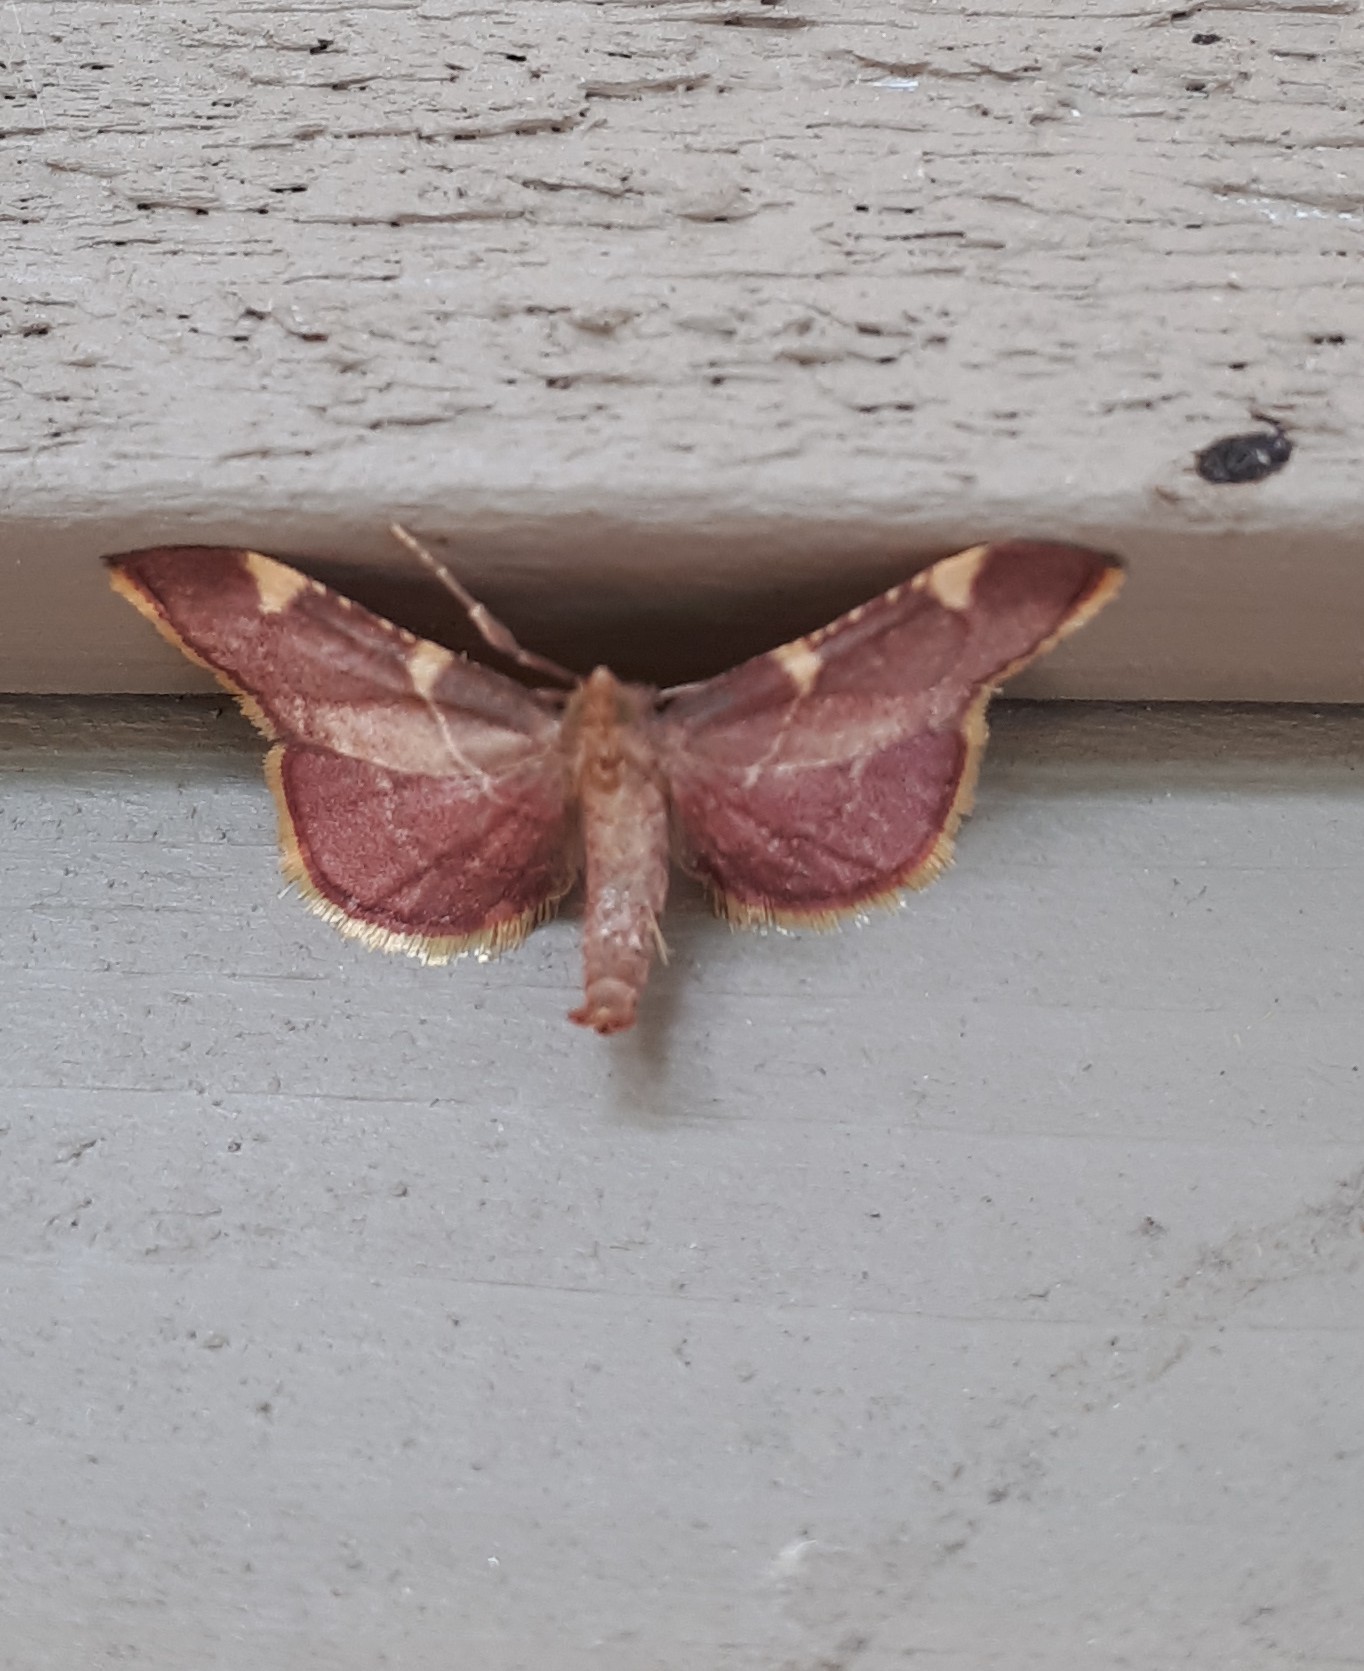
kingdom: Animalia
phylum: Arthropoda
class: Insecta
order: Lepidoptera
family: Pyralidae
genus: Hypsopygia
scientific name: Hypsopygia olinalis
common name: Yellow-fringed dolichomia moth
